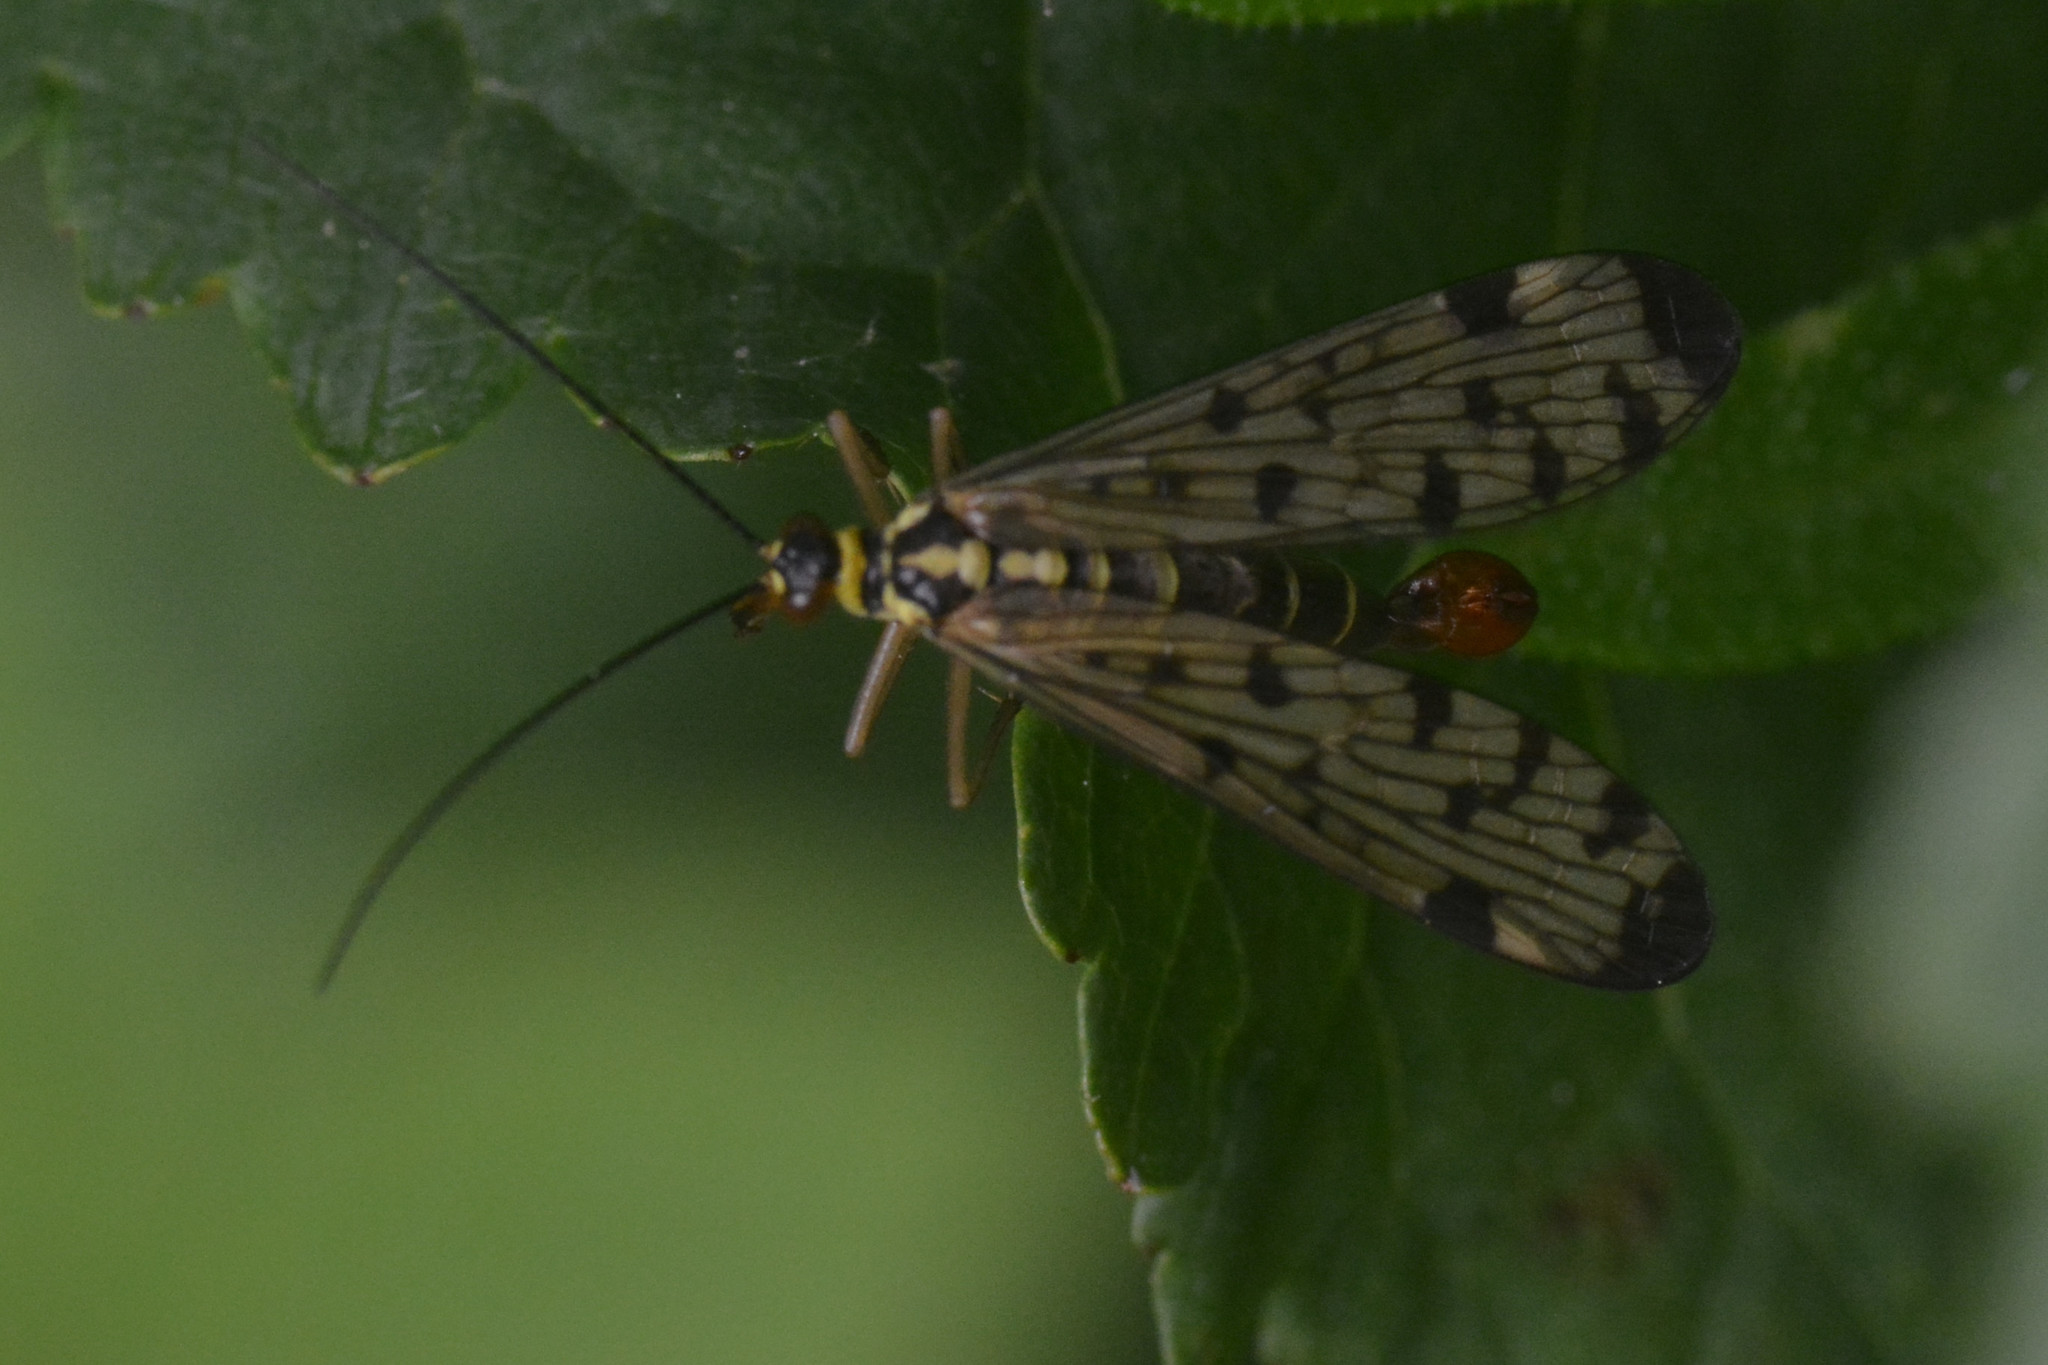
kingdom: Animalia
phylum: Arthropoda
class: Insecta
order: Mecoptera
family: Panorpidae
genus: Panorpa
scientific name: Panorpa germanica
